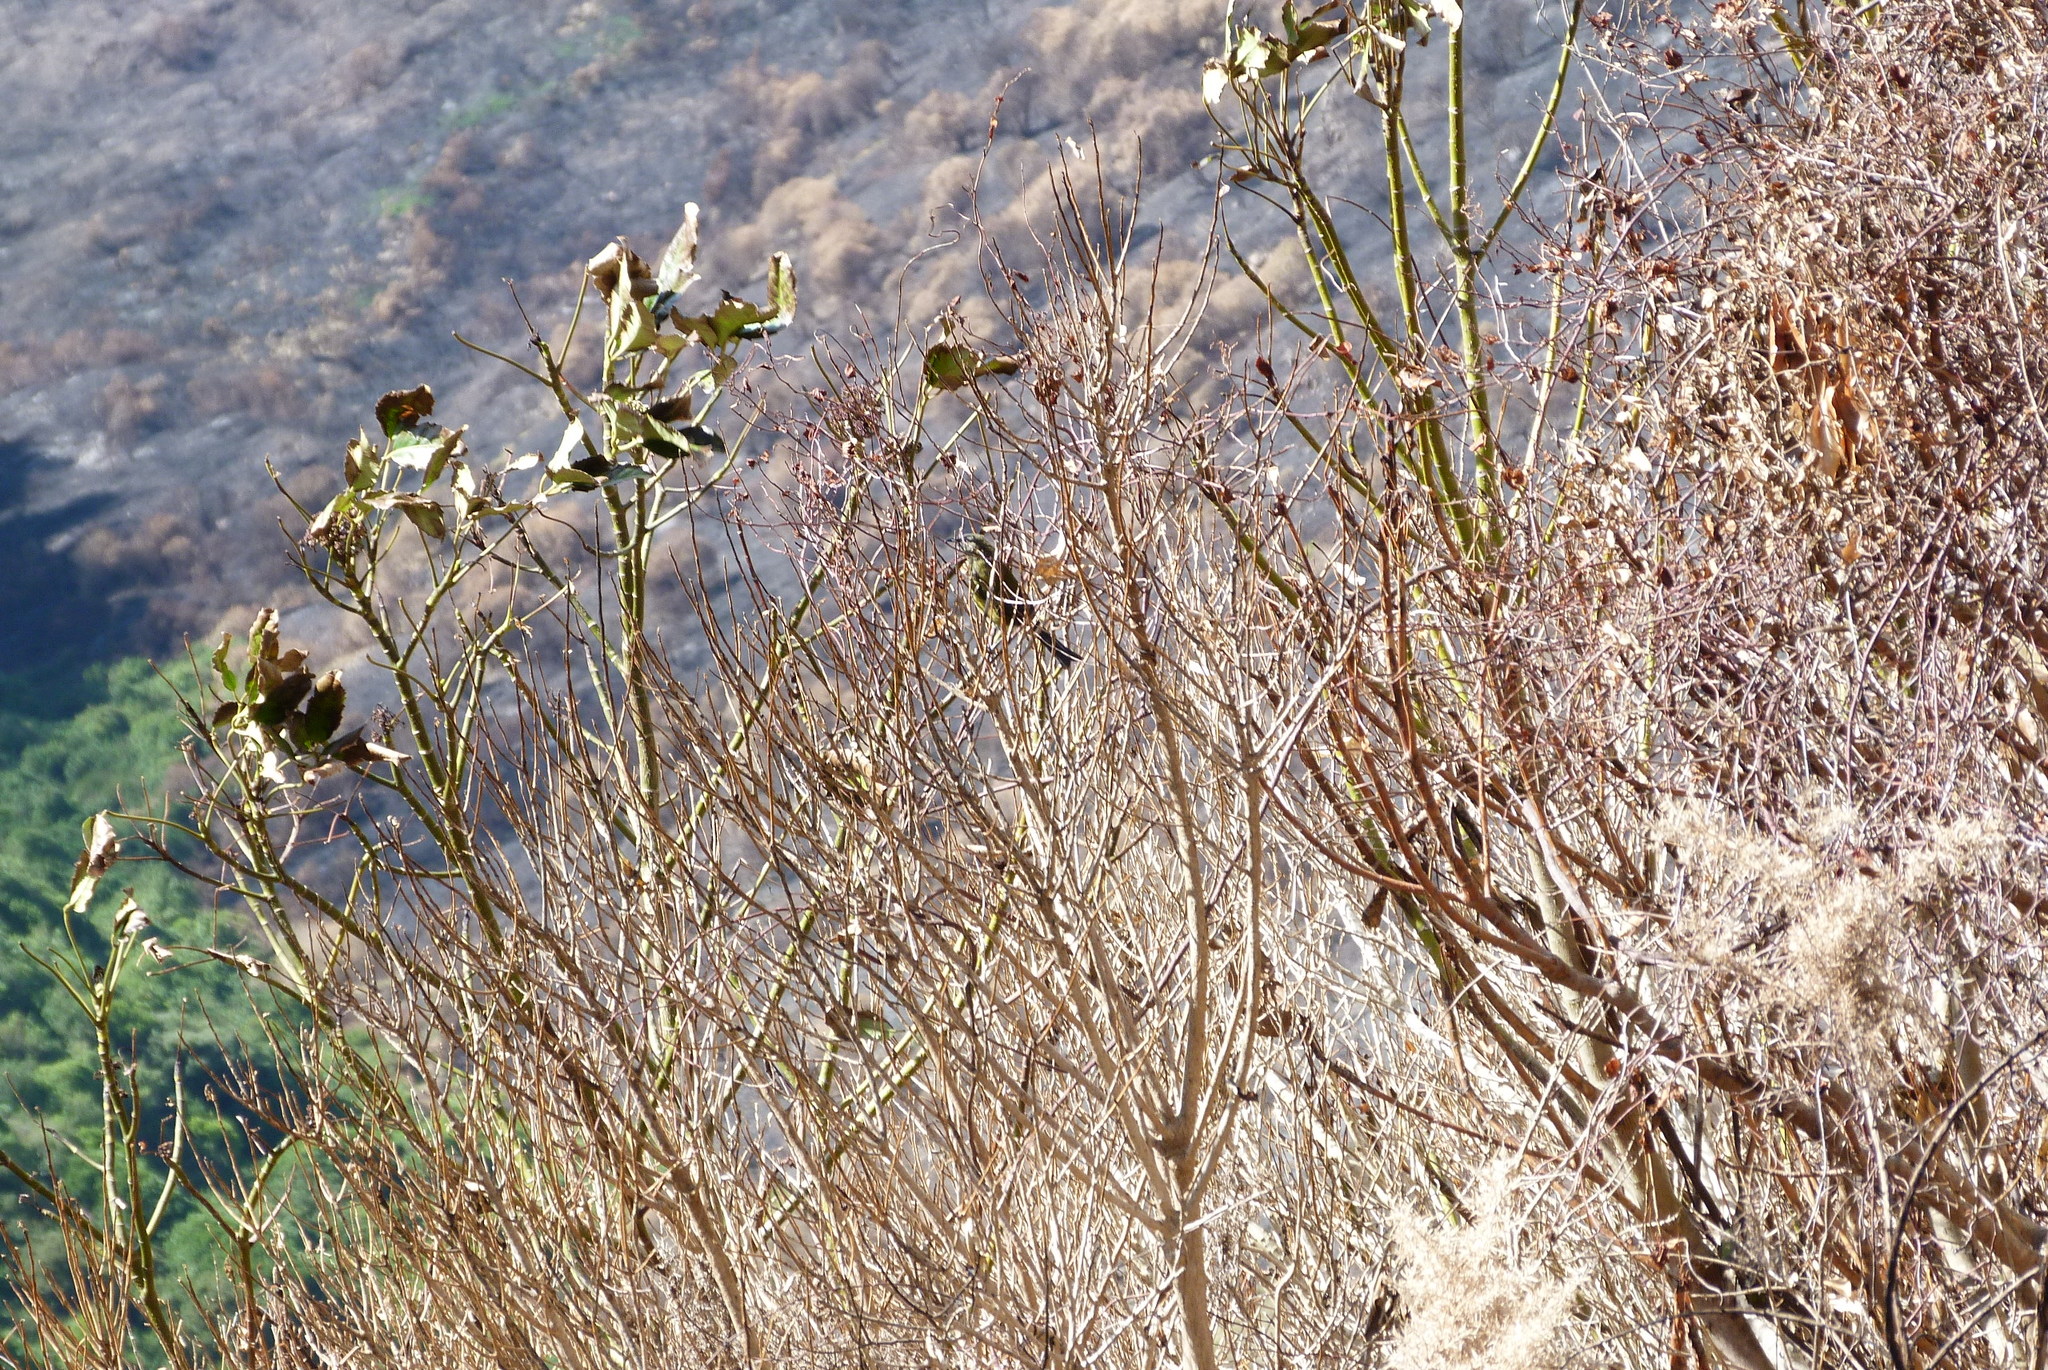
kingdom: Plantae
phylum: Tracheophyta
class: Magnoliopsida
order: Apiales
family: Araliaceae
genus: Neopanax
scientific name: Neopanax arboreus
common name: Five-fingers
